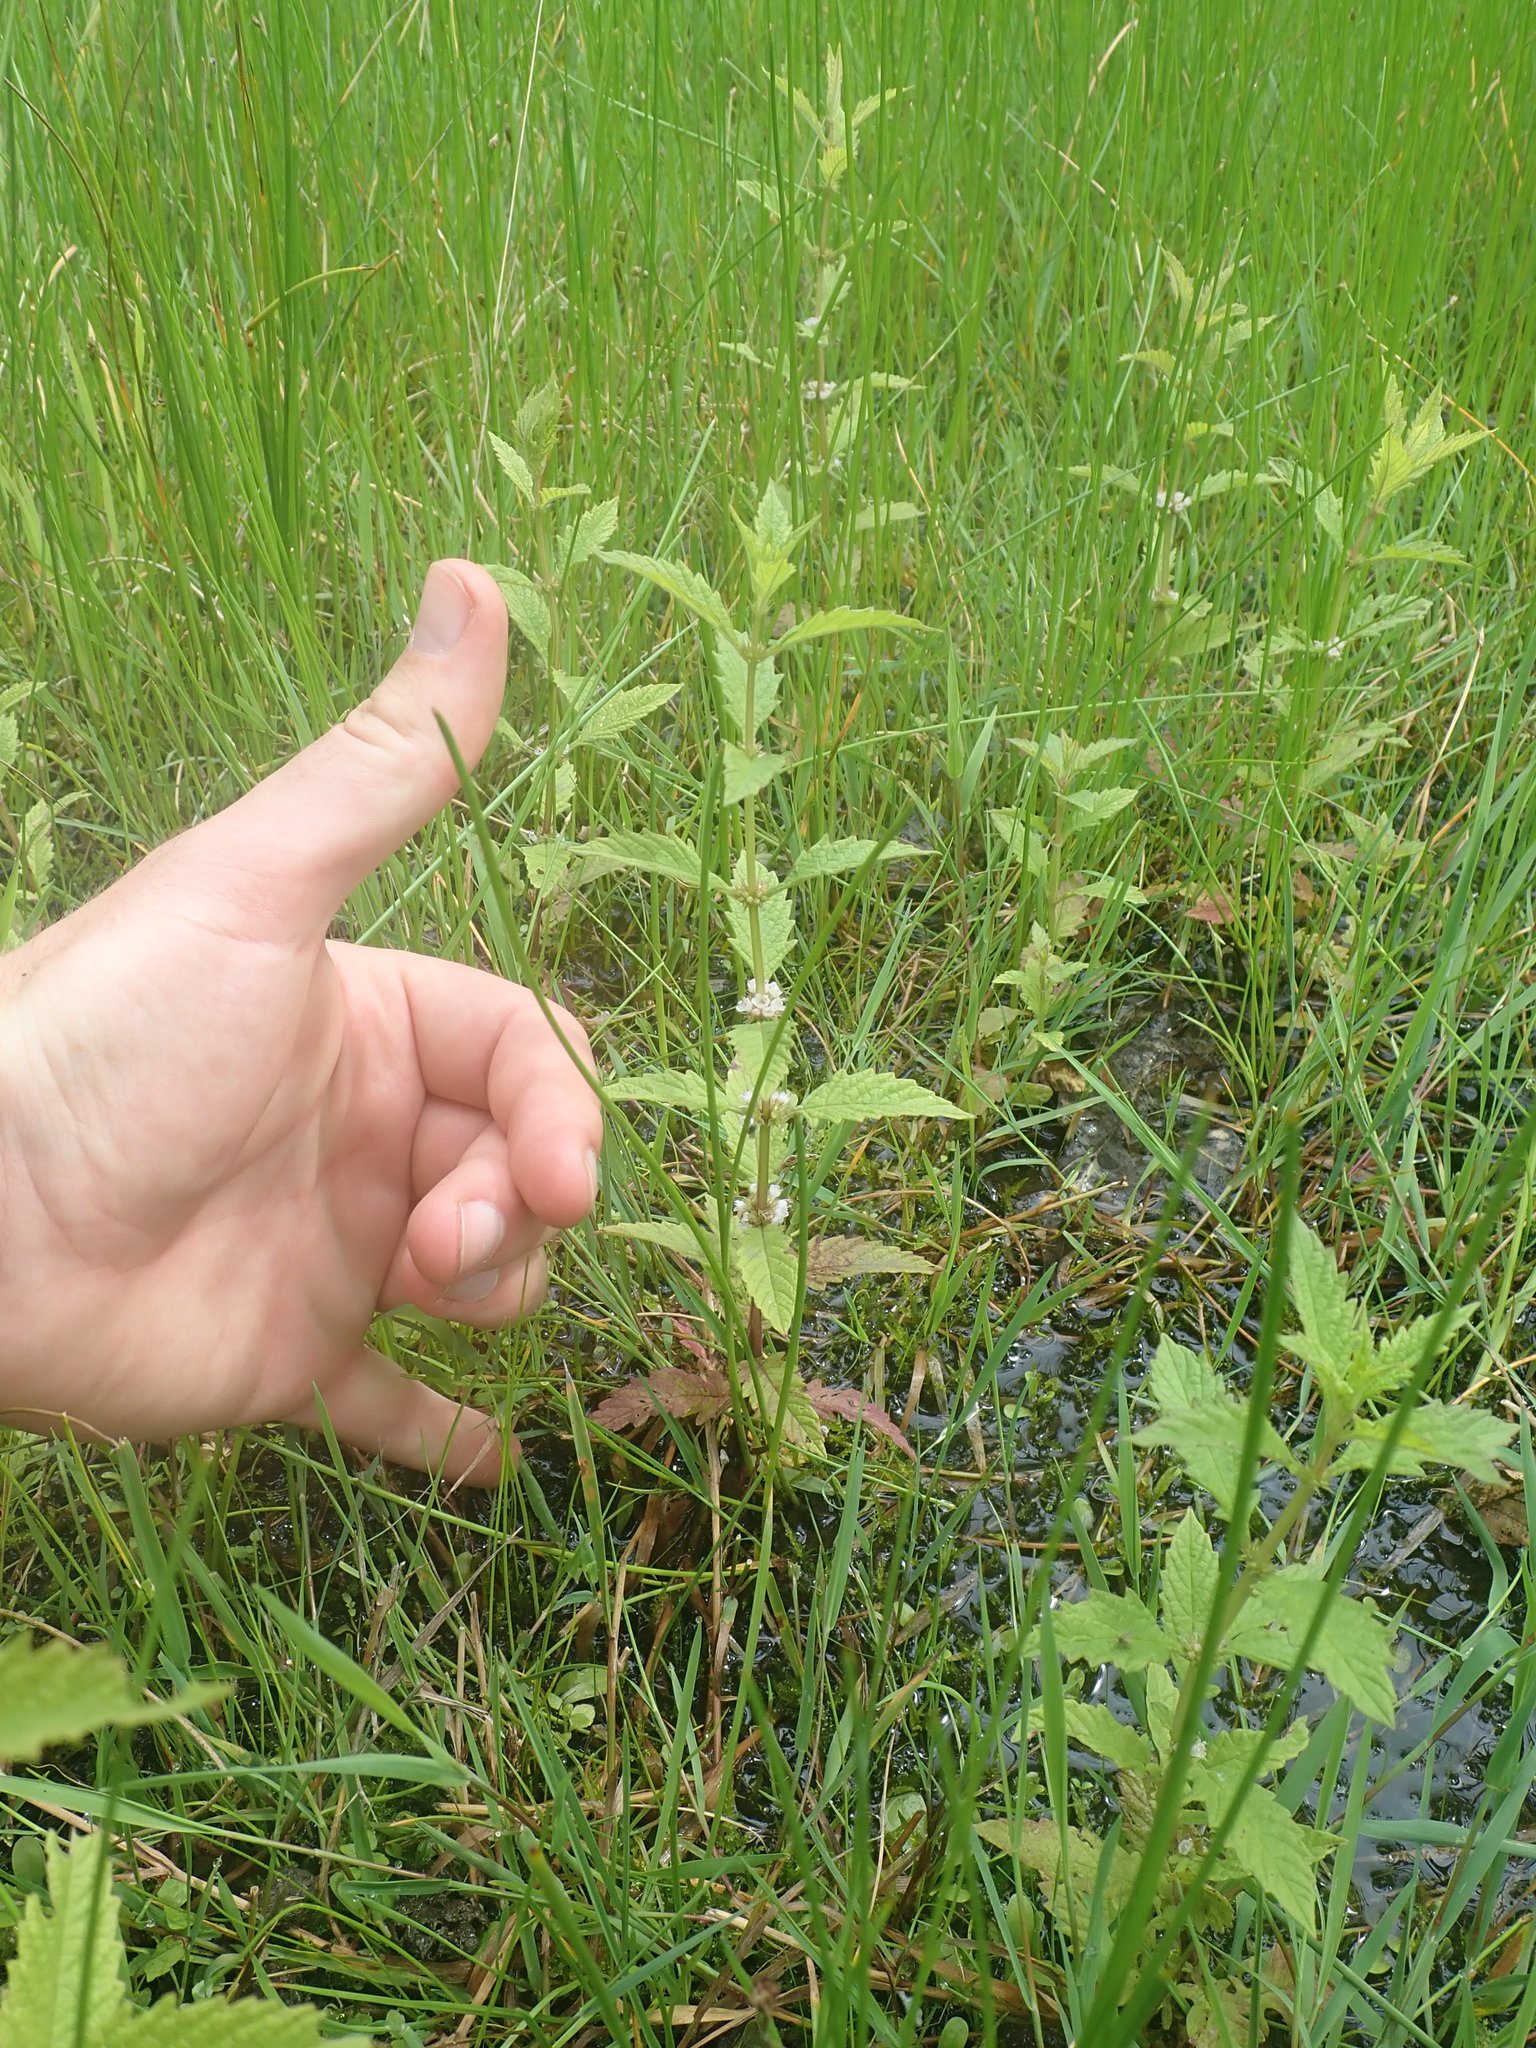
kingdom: Plantae
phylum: Tracheophyta
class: Magnoliopsida
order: Lamiales
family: Lamiaceae
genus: Lycopus
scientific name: Lycopus europaeus
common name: European bugleweed
